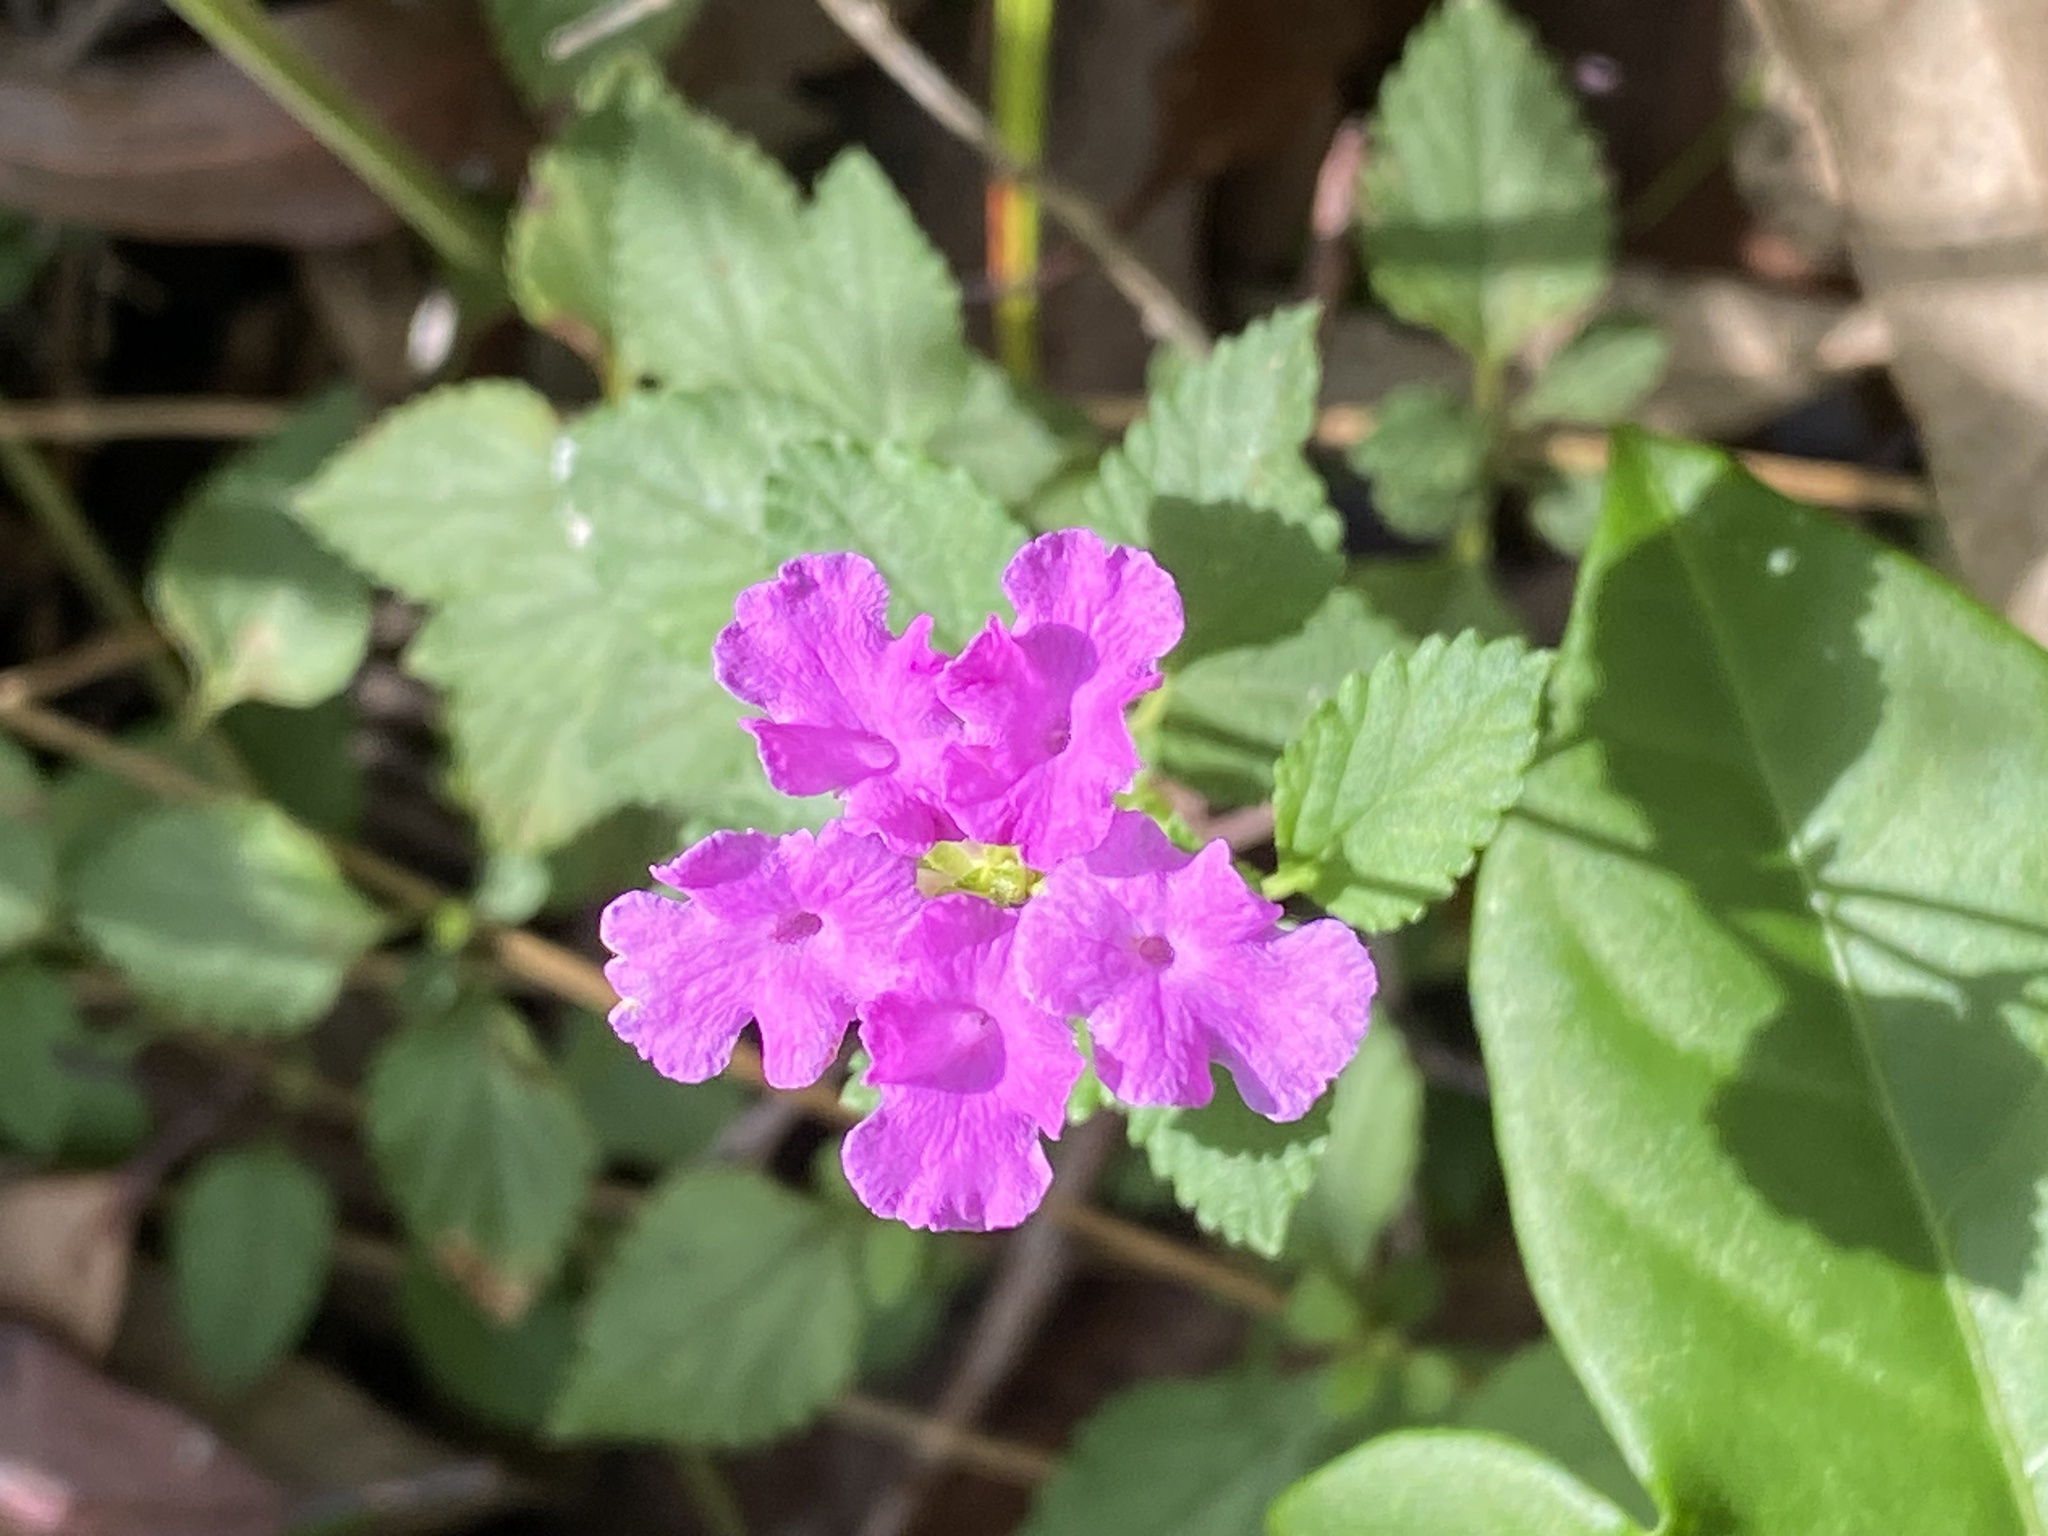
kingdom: Plantae
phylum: Tracheophyta
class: Magnoliopsida
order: Lamiales
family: Verbenaceae
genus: Lantana
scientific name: Lantana montevidensis
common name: Trailing shrubverbena
